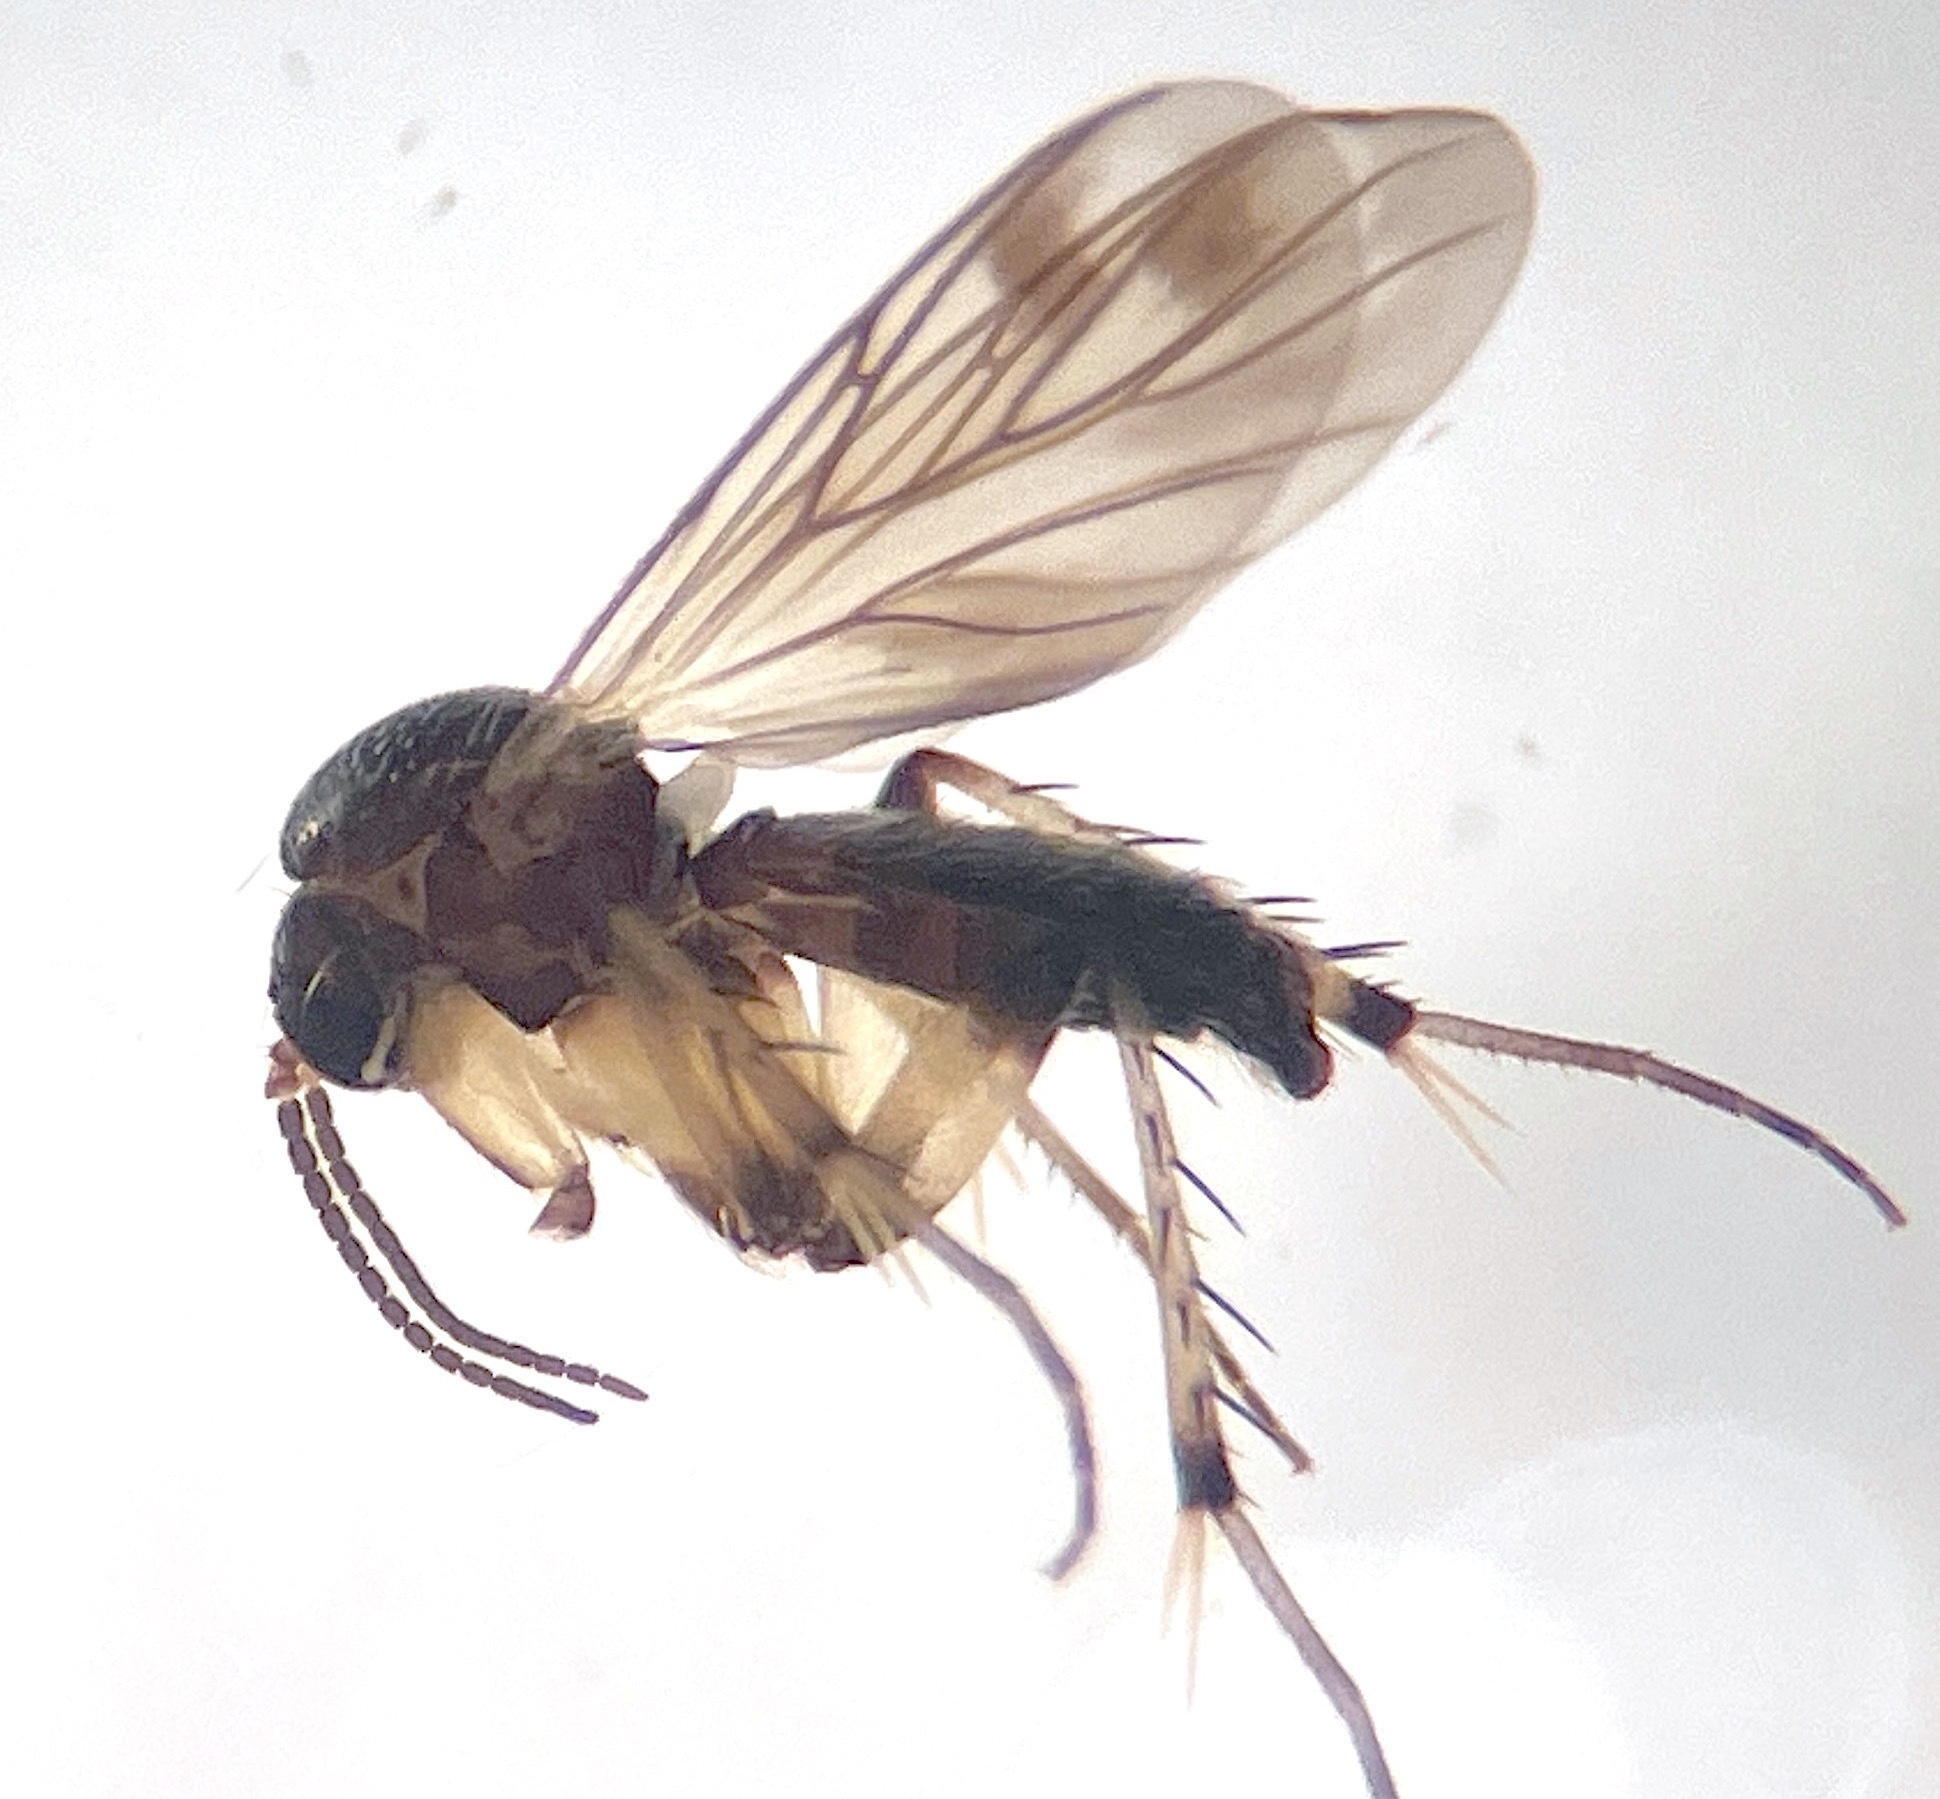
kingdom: Animalia
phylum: Arthropoda
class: Insecta
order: Diptera
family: Mycetophilidae
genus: Anomalomyia
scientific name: Anomalomyia minor
